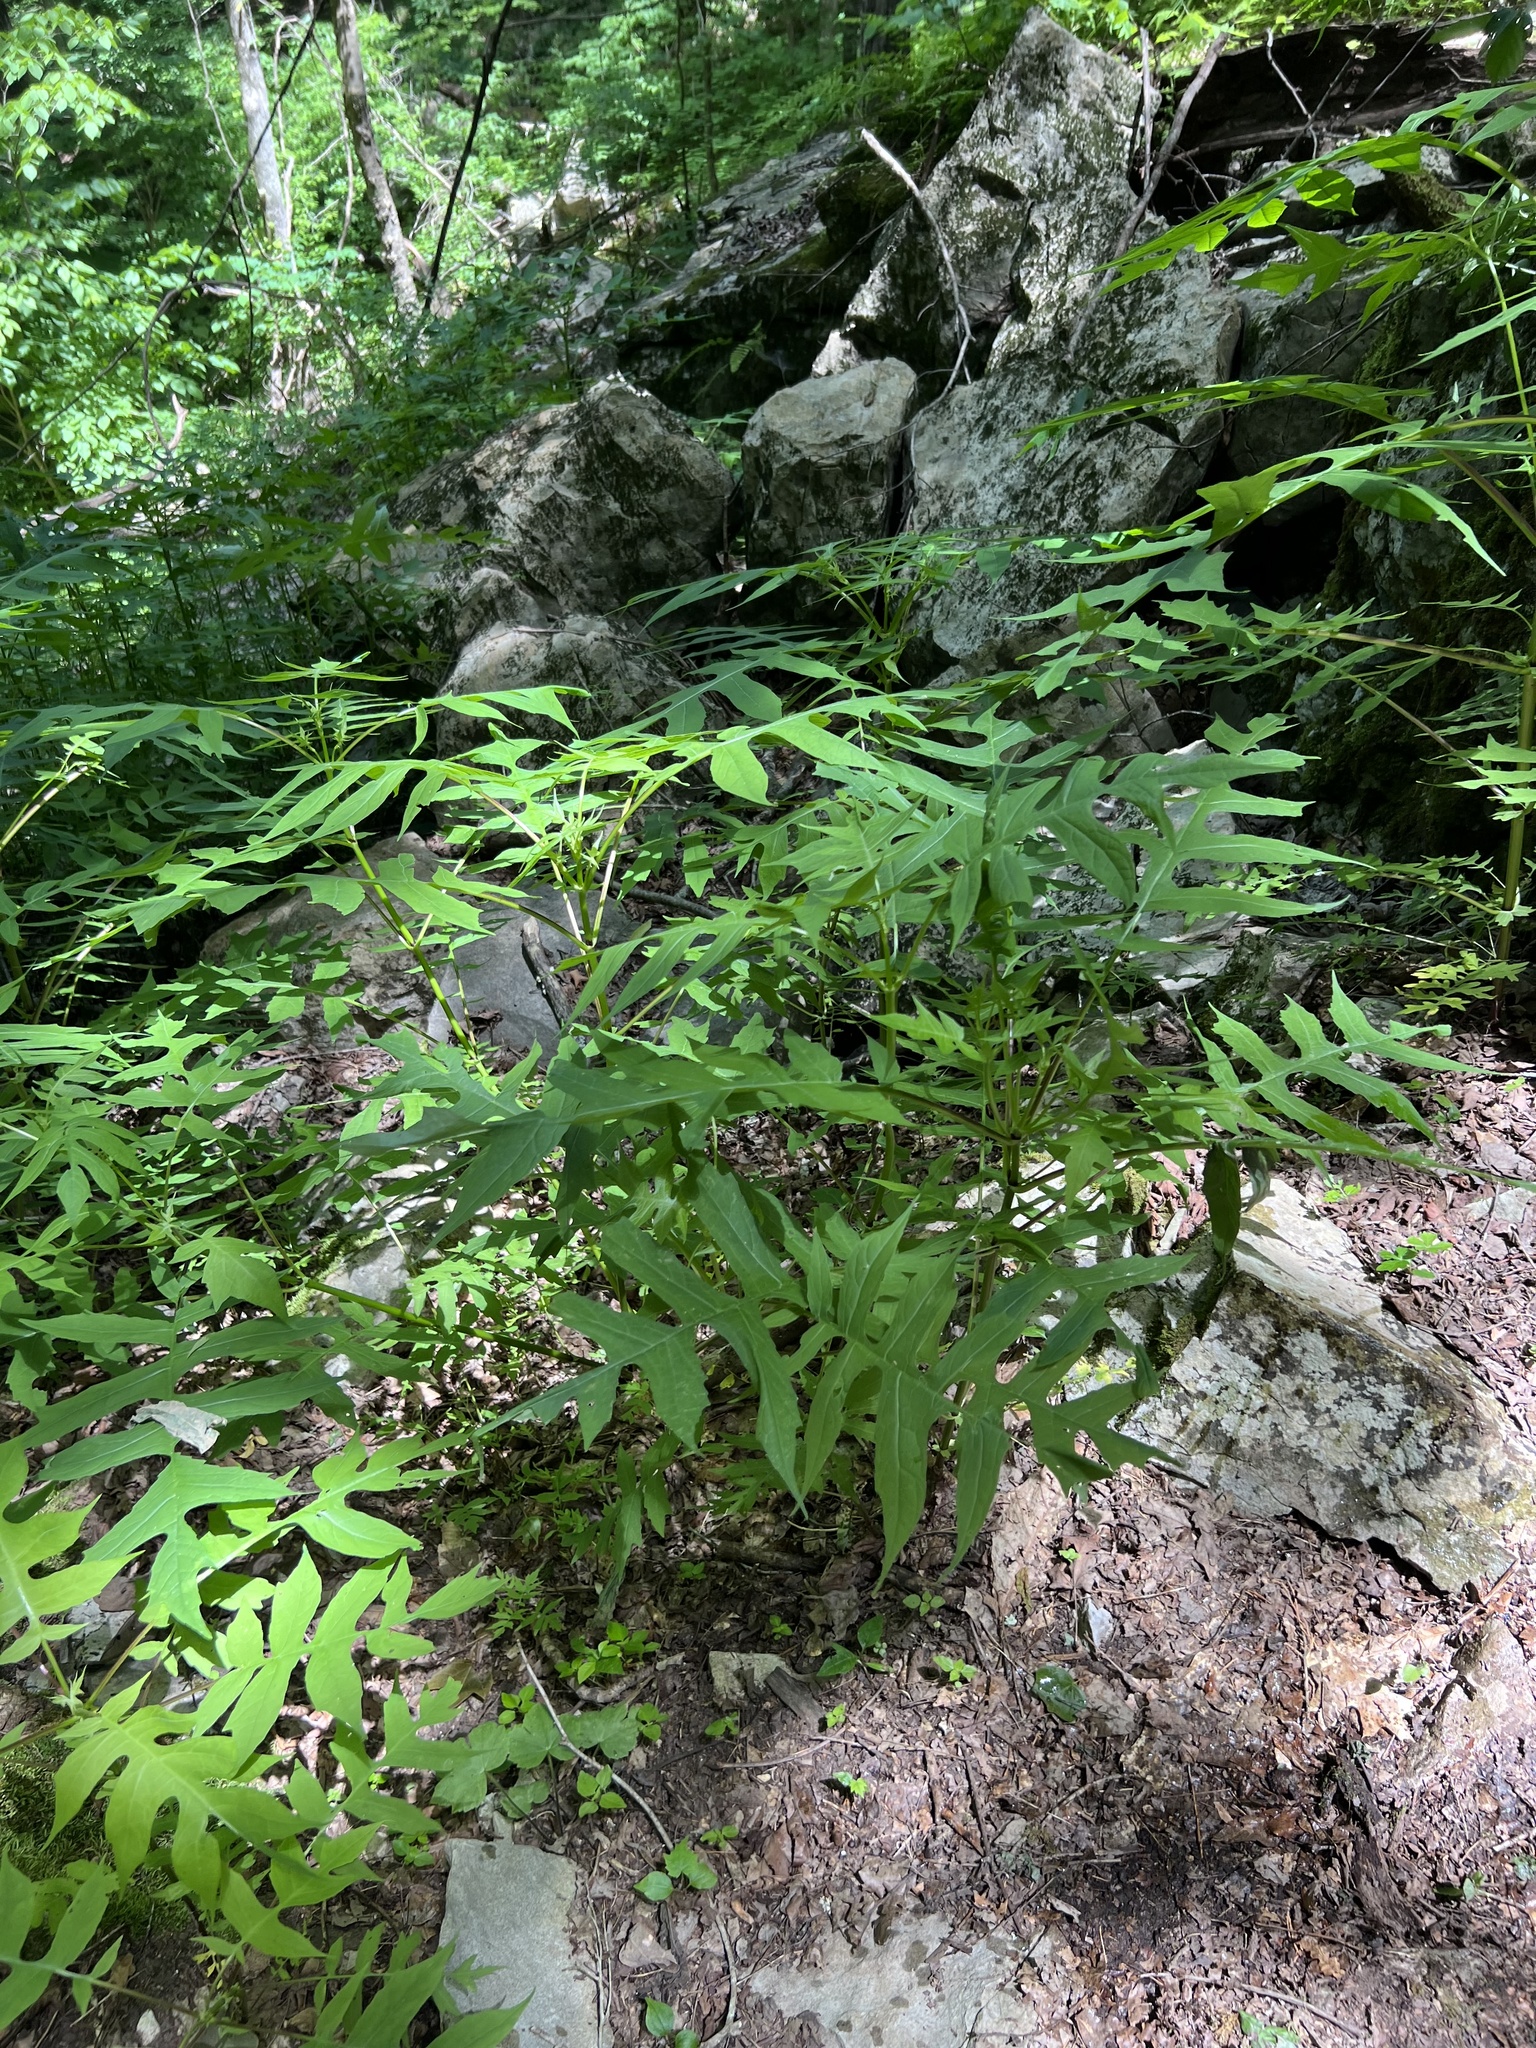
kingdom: Plantae
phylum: Tracheophyta
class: Magnoliopsida
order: Asterales
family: Asteraceae
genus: Polymnia
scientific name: Polymnia laevigata
